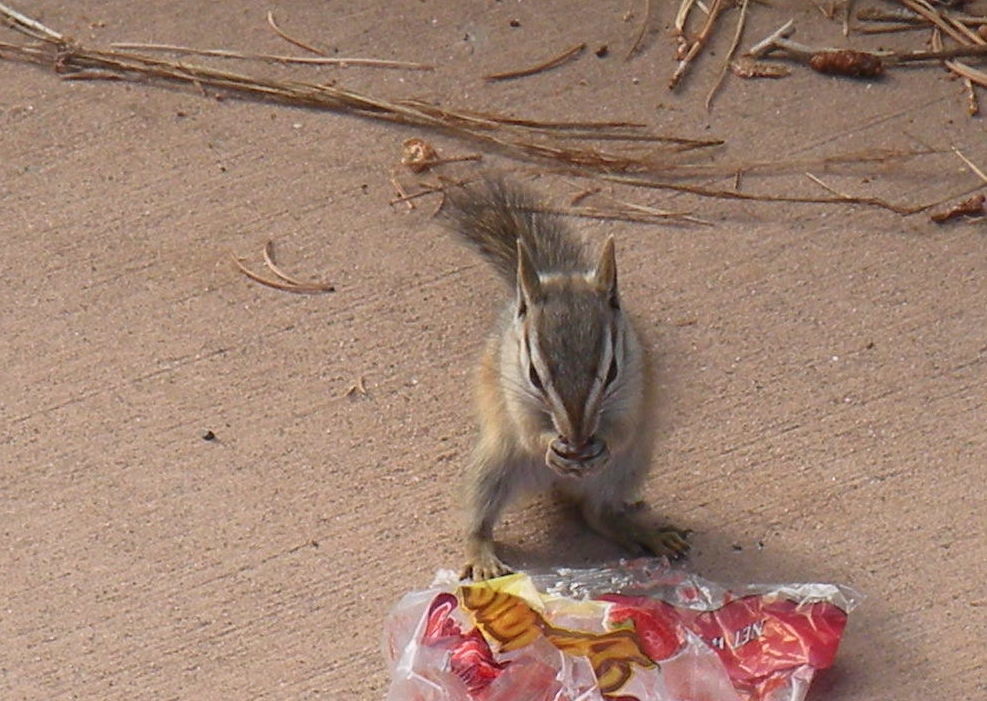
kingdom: Animalia
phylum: Chordata
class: Mammalia
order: Rodentia
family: Sciuridae
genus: Tamias
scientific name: Tamias dorsalis
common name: Cliff chipmunk
